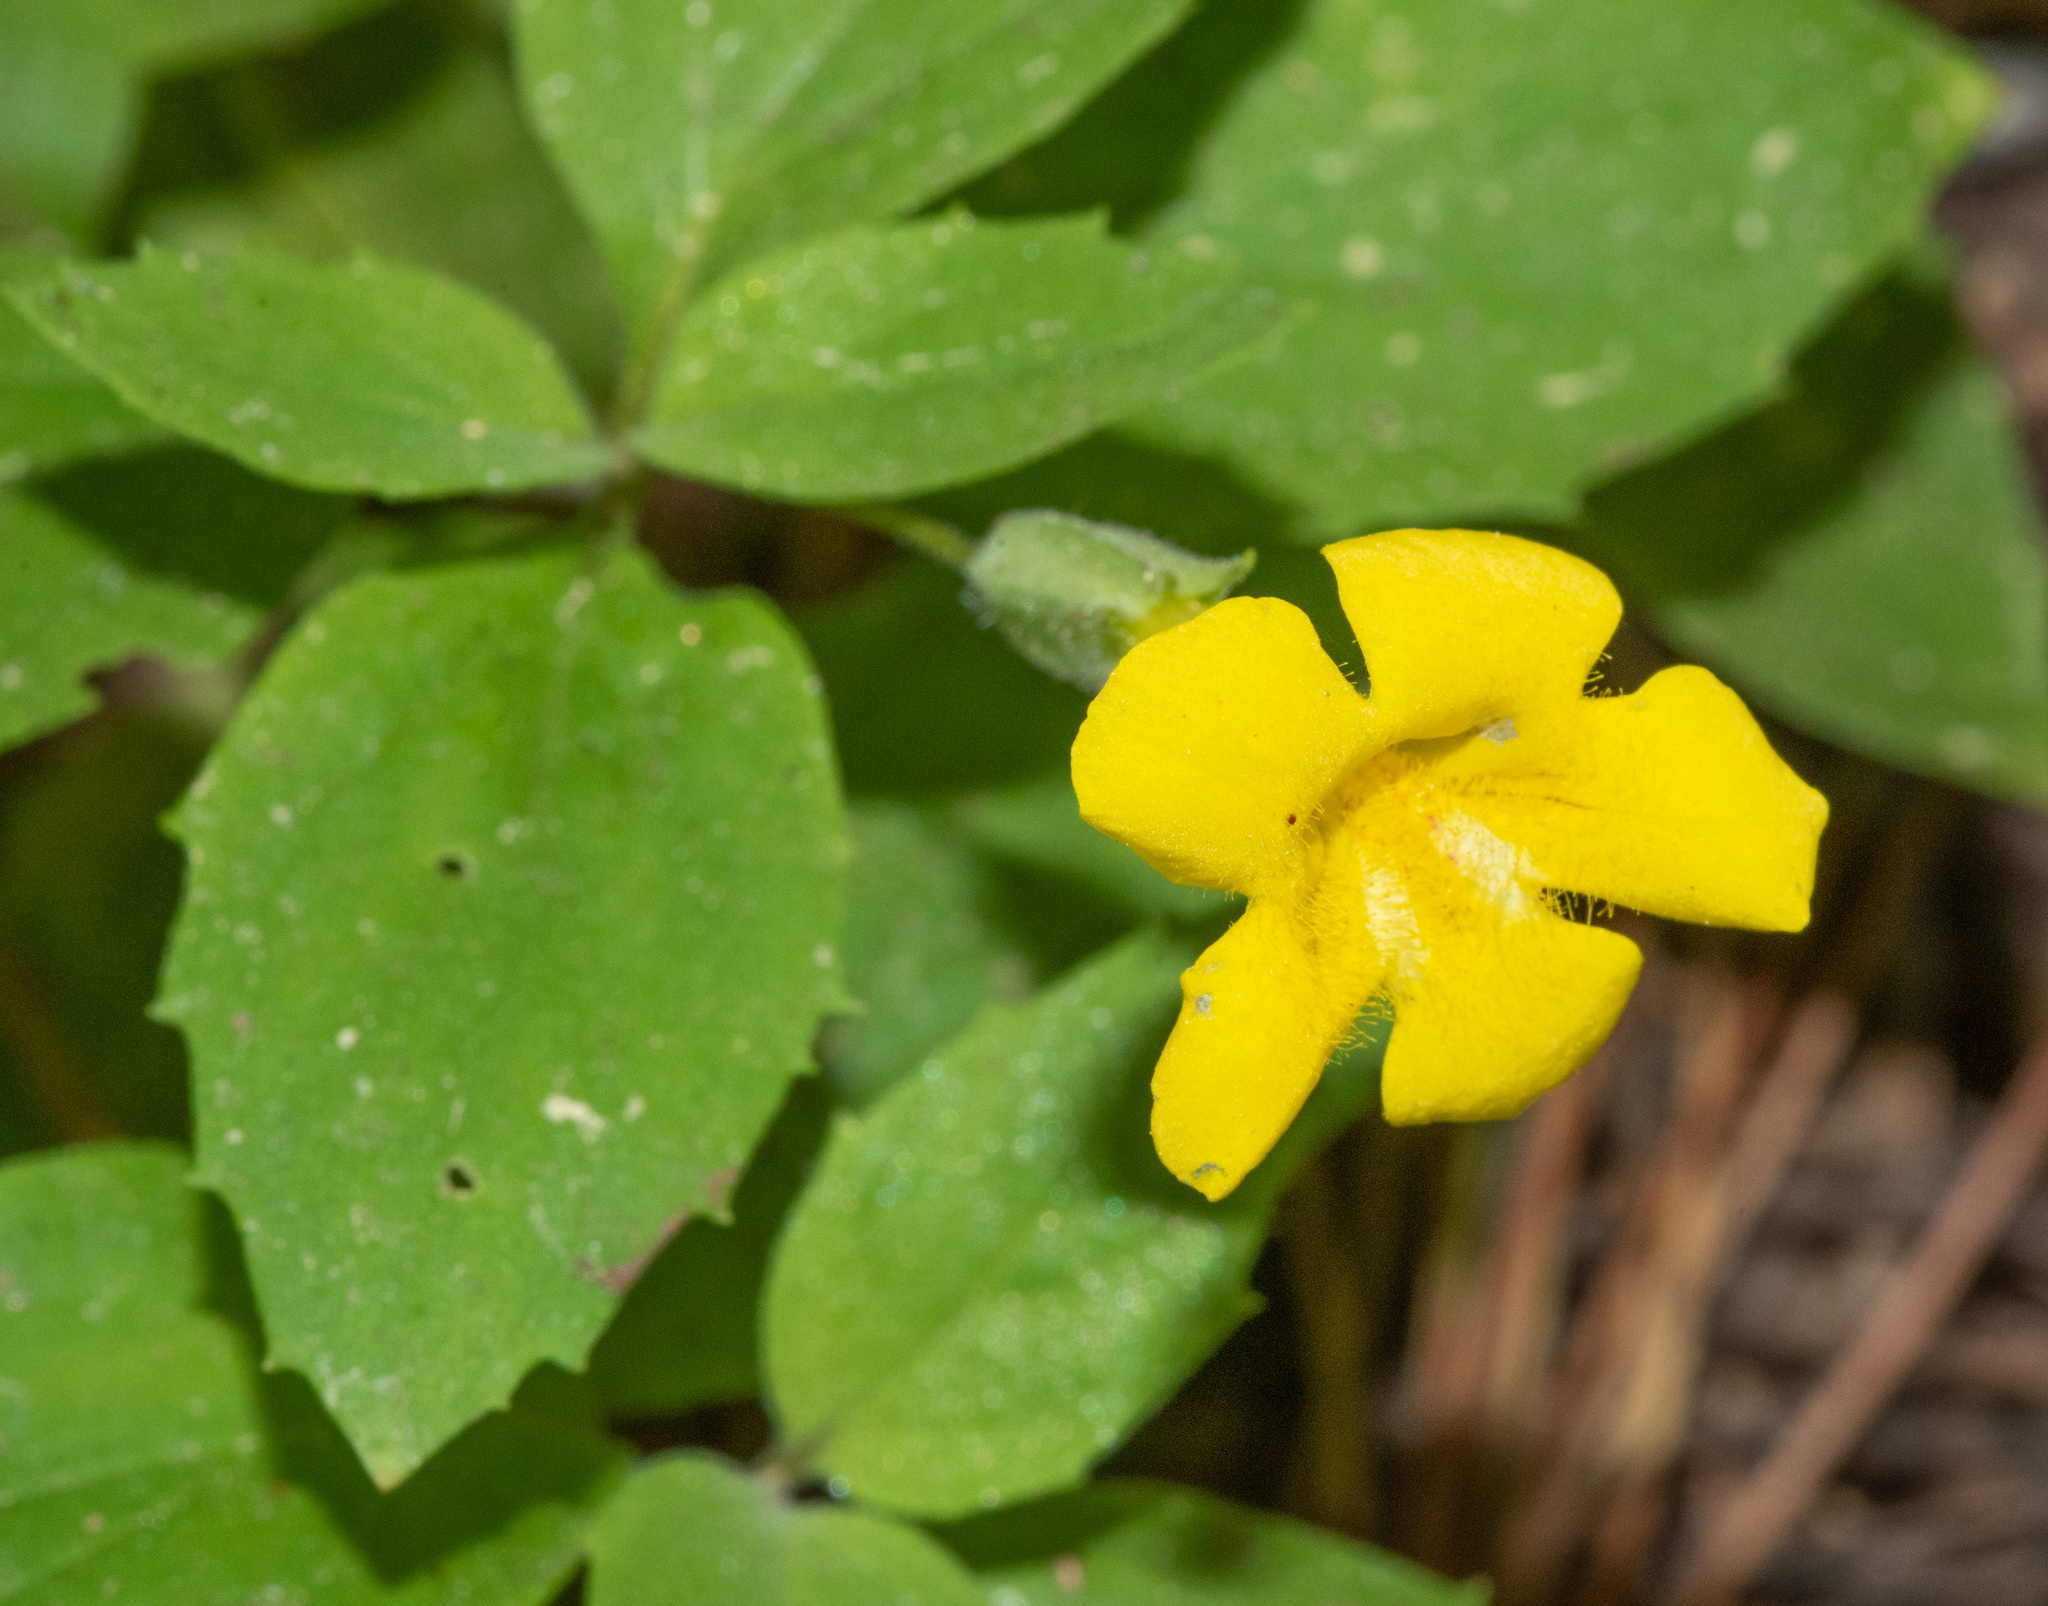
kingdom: Plantae
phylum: Tracheophyta
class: Magnoliopsida
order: Lamiales
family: Phrymaceae
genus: Erythranthe
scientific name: Erythranthe moschata
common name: Muskflower
